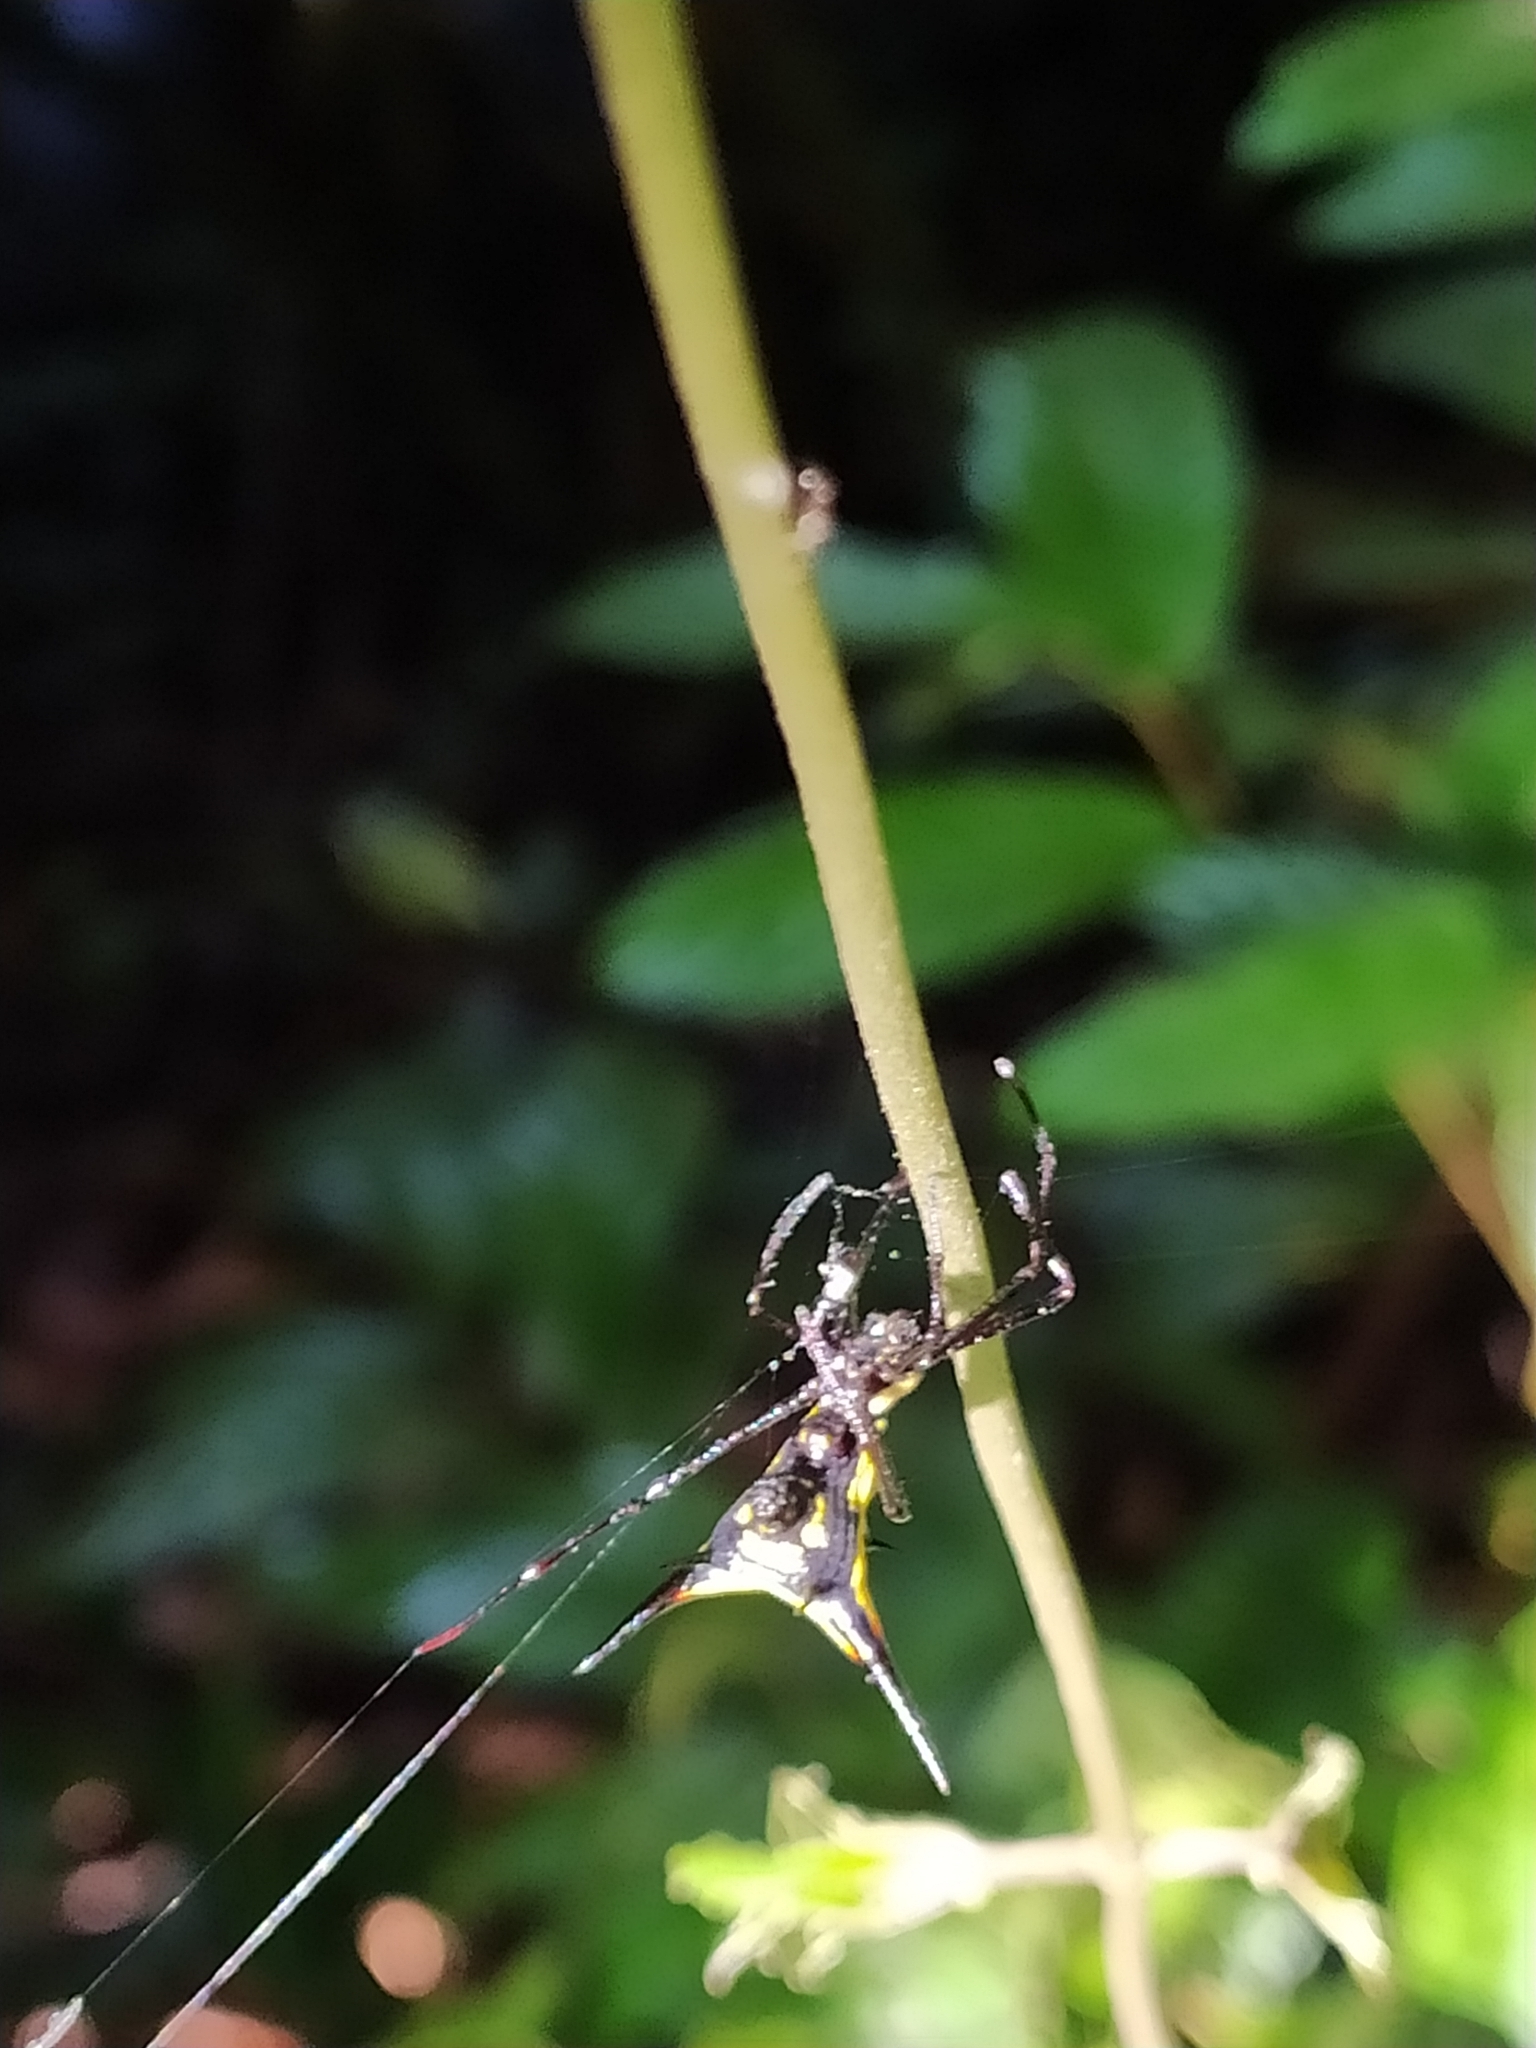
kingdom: Animalia
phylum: Arthropoda
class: Arachnida
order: Araneae
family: Araneidae
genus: Micrathena
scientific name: Micrathena schreibersi
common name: Orb weavers
